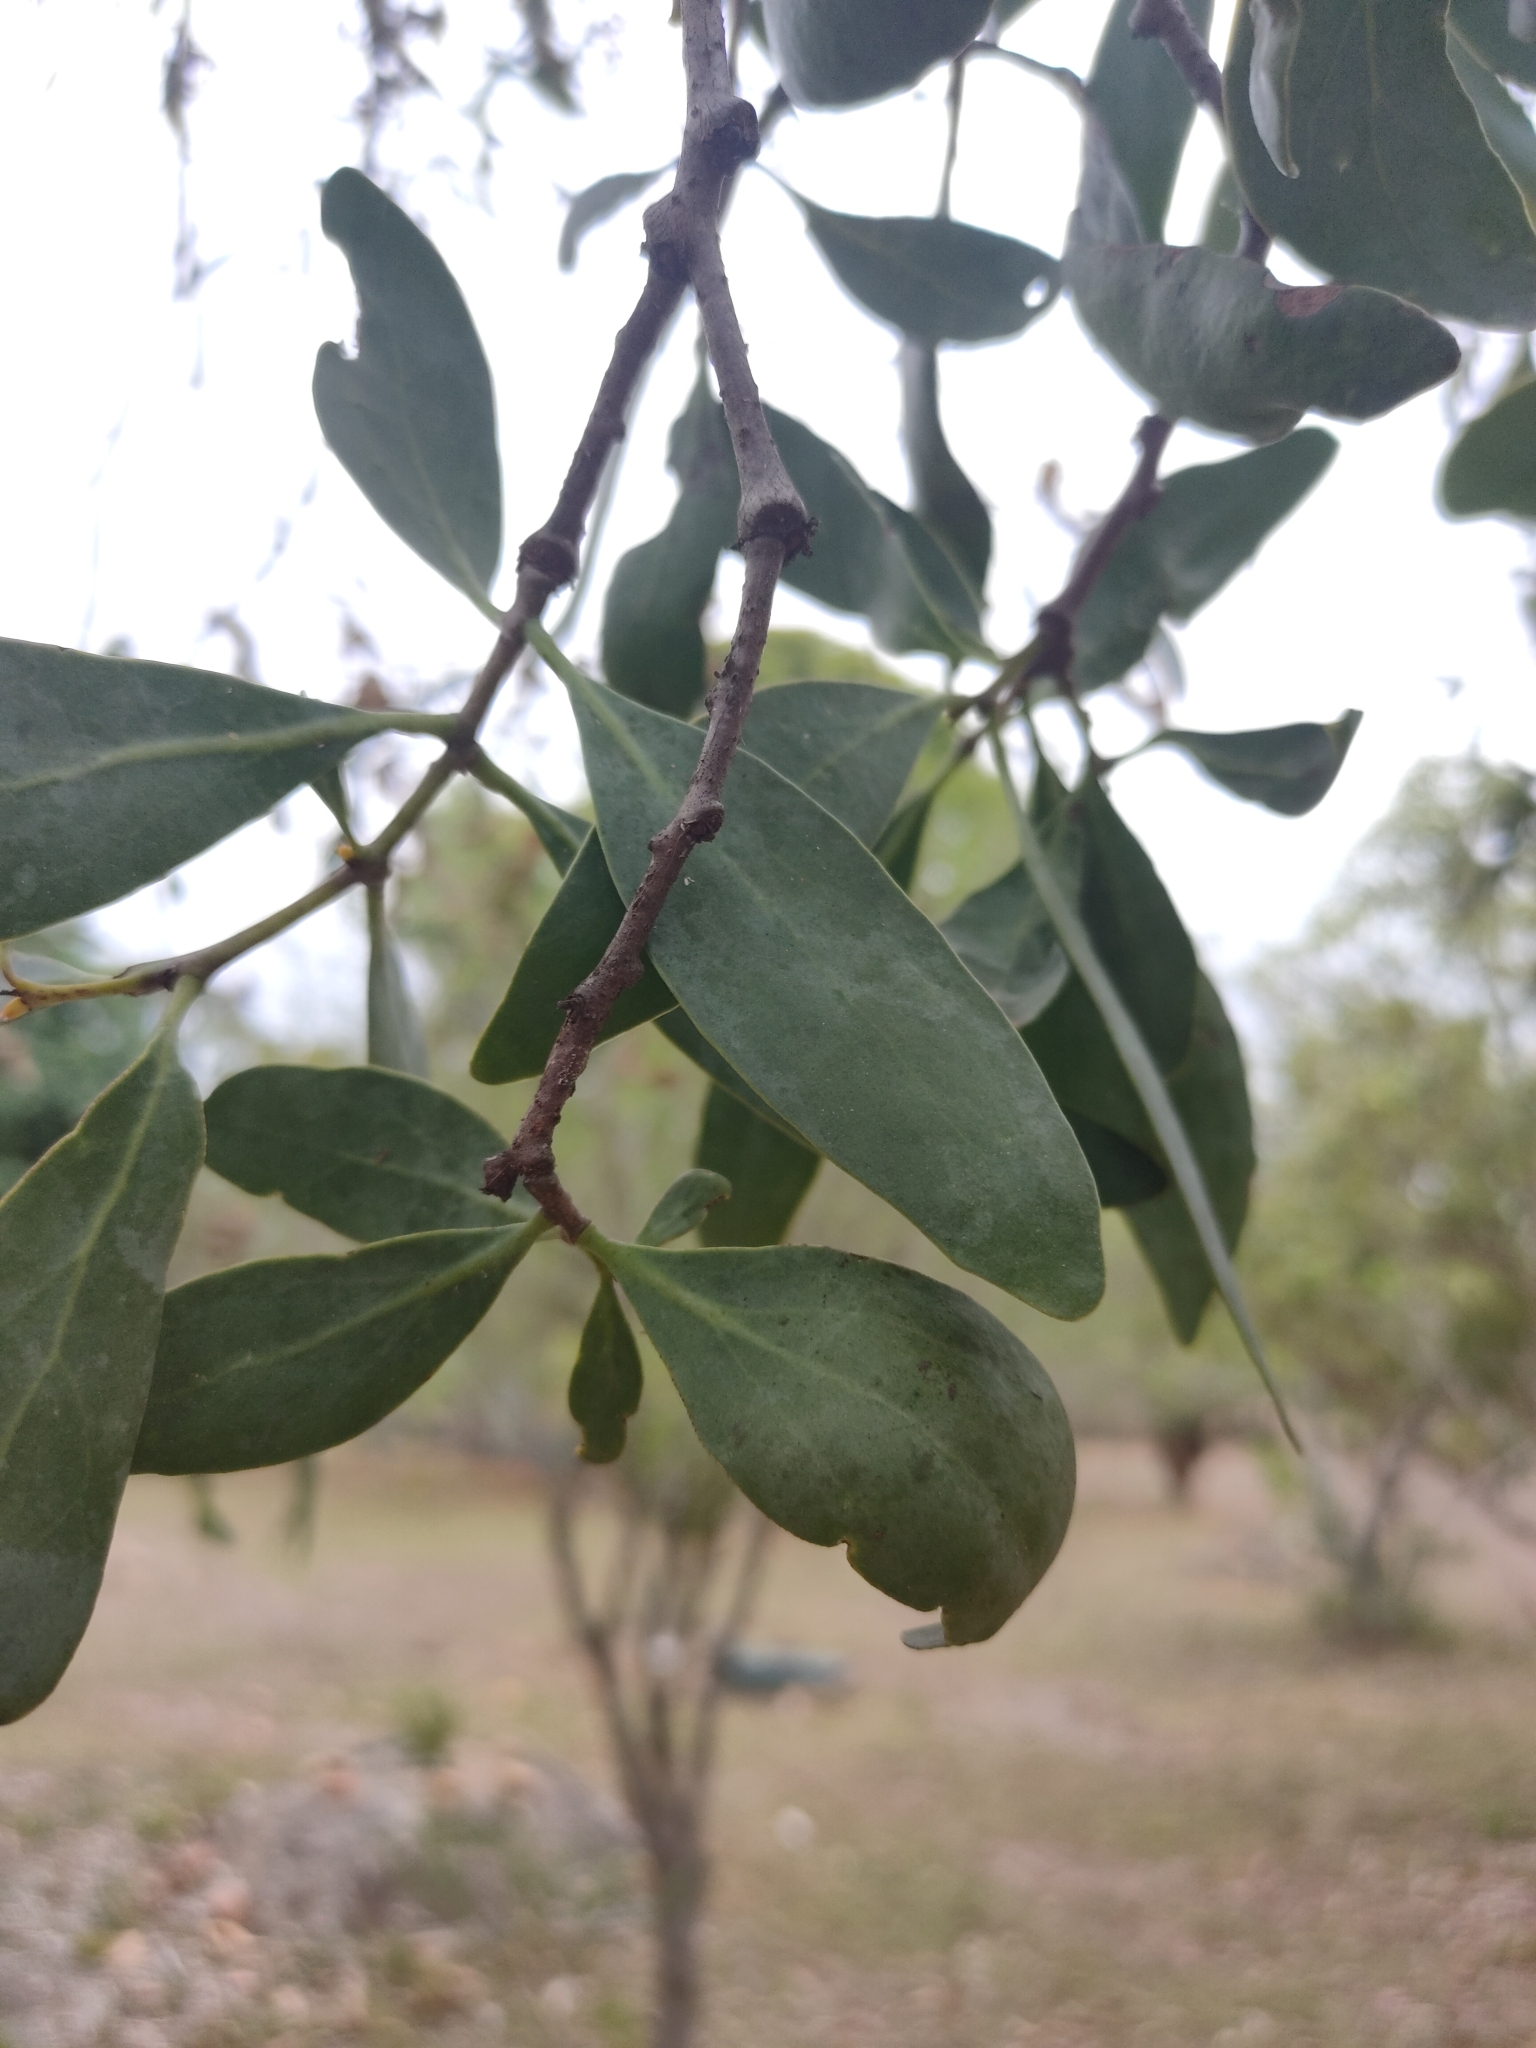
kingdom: Plantae
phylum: Tracheophyta
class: Magnoliopsida
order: Santalales
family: Loranthaceae
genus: Dendrophthoe
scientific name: Dendrophthoe glabrescens
